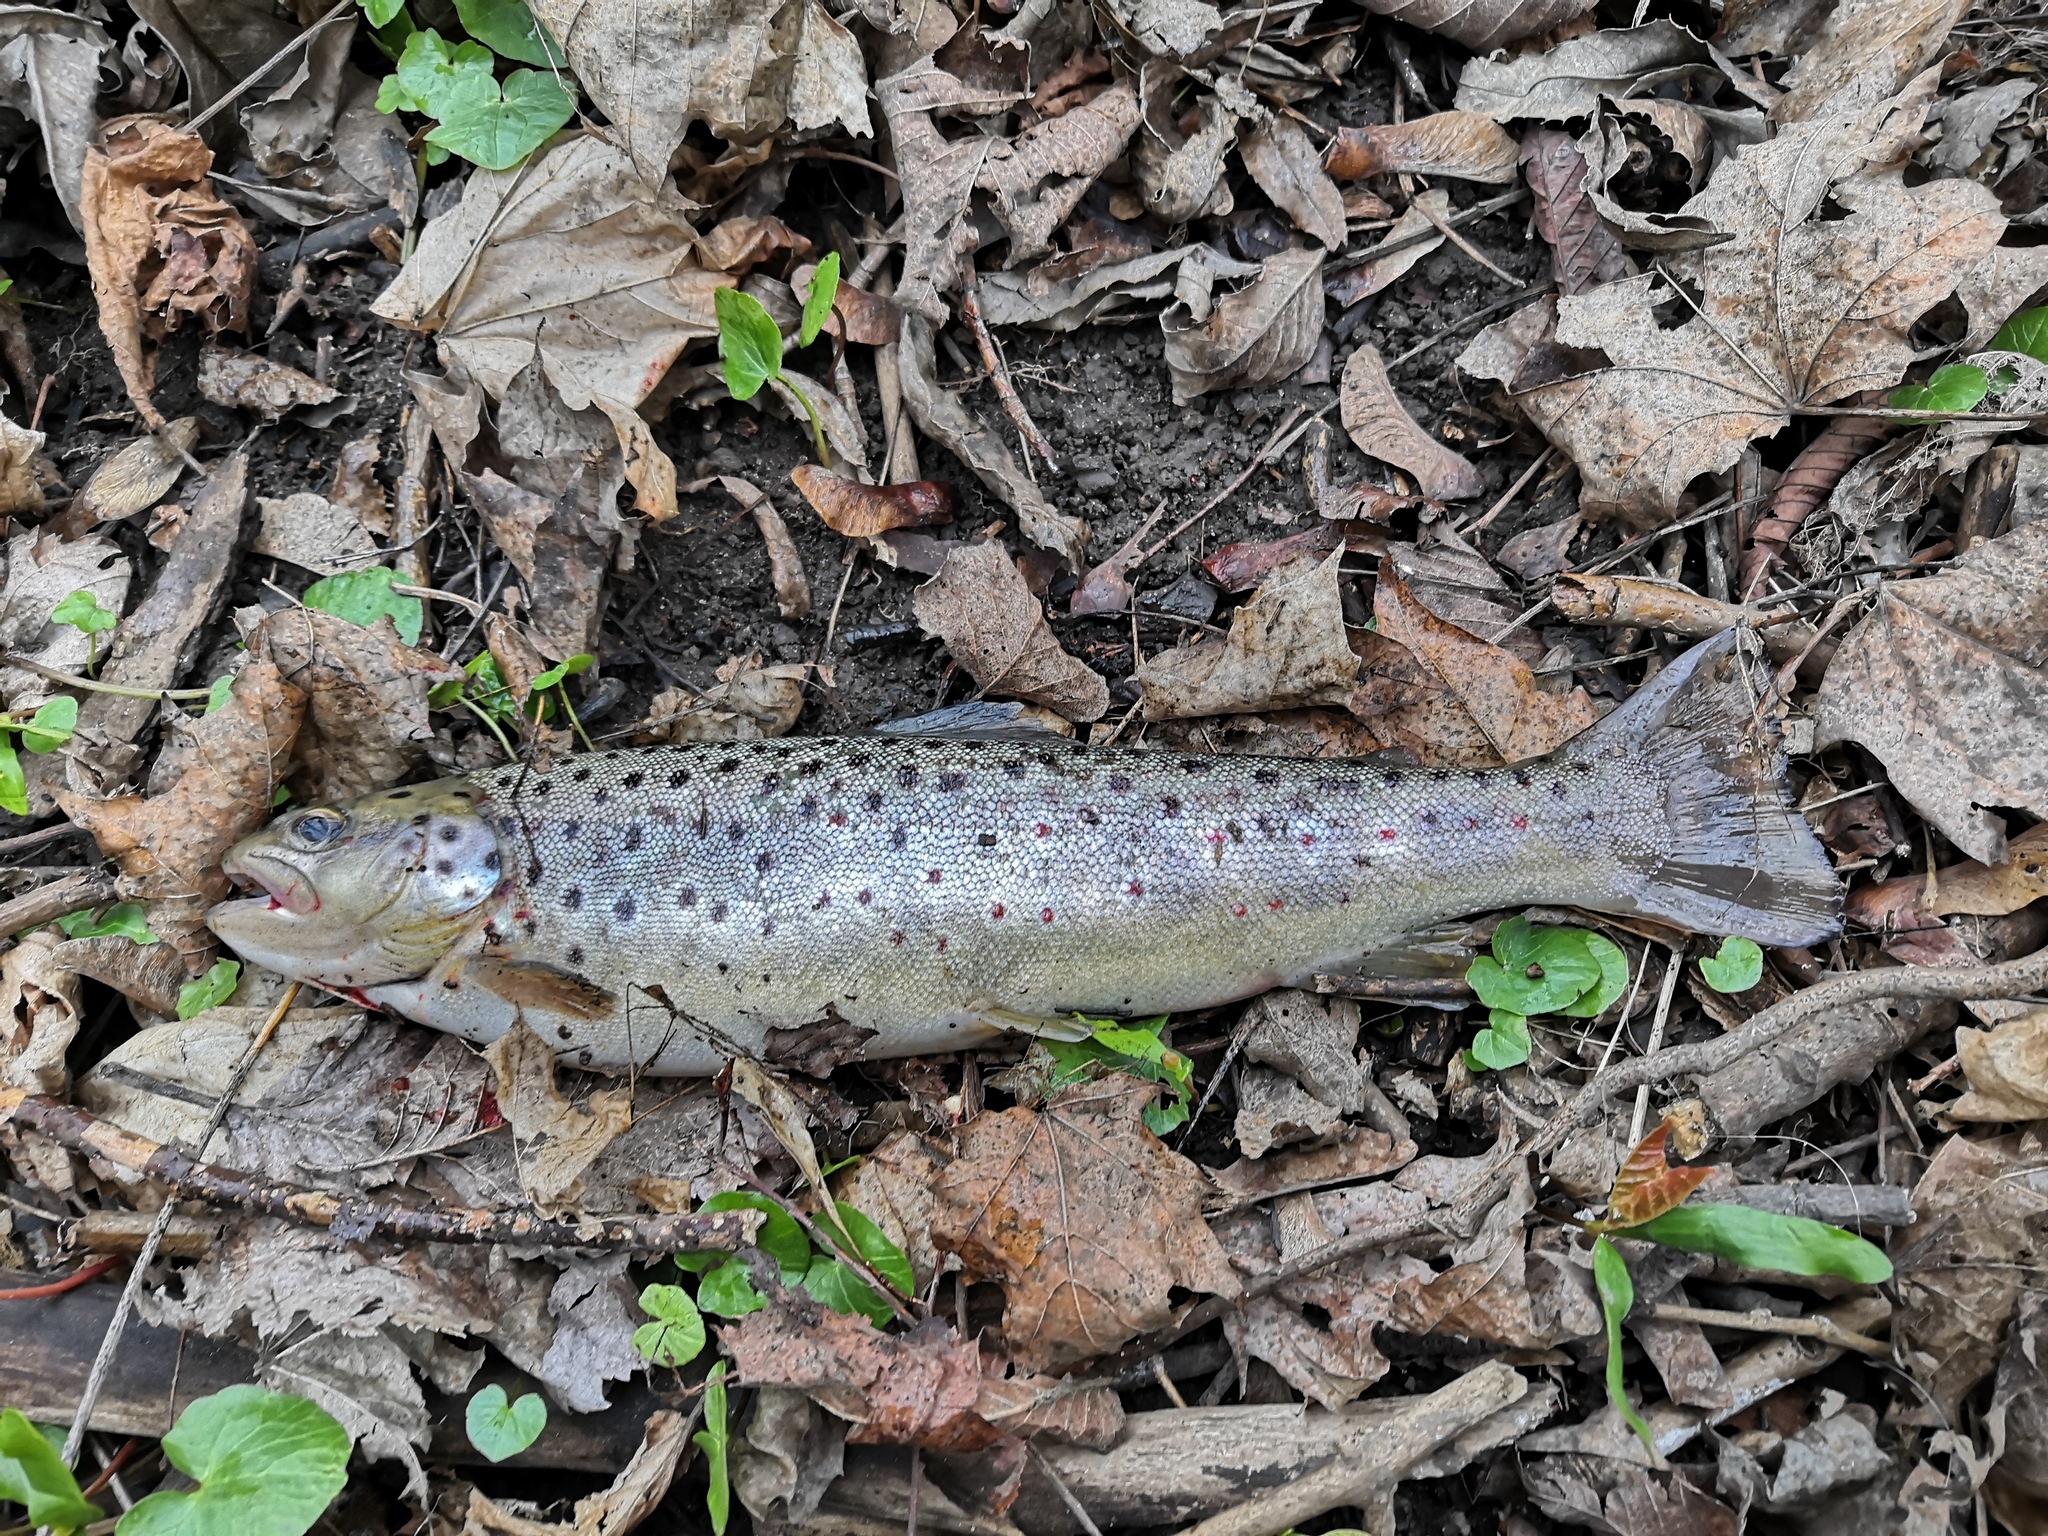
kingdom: Animalia
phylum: Chordata
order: Salmoniformes
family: Salmonidae
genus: Salmo
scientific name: Salmo trutta
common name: Brown trout
